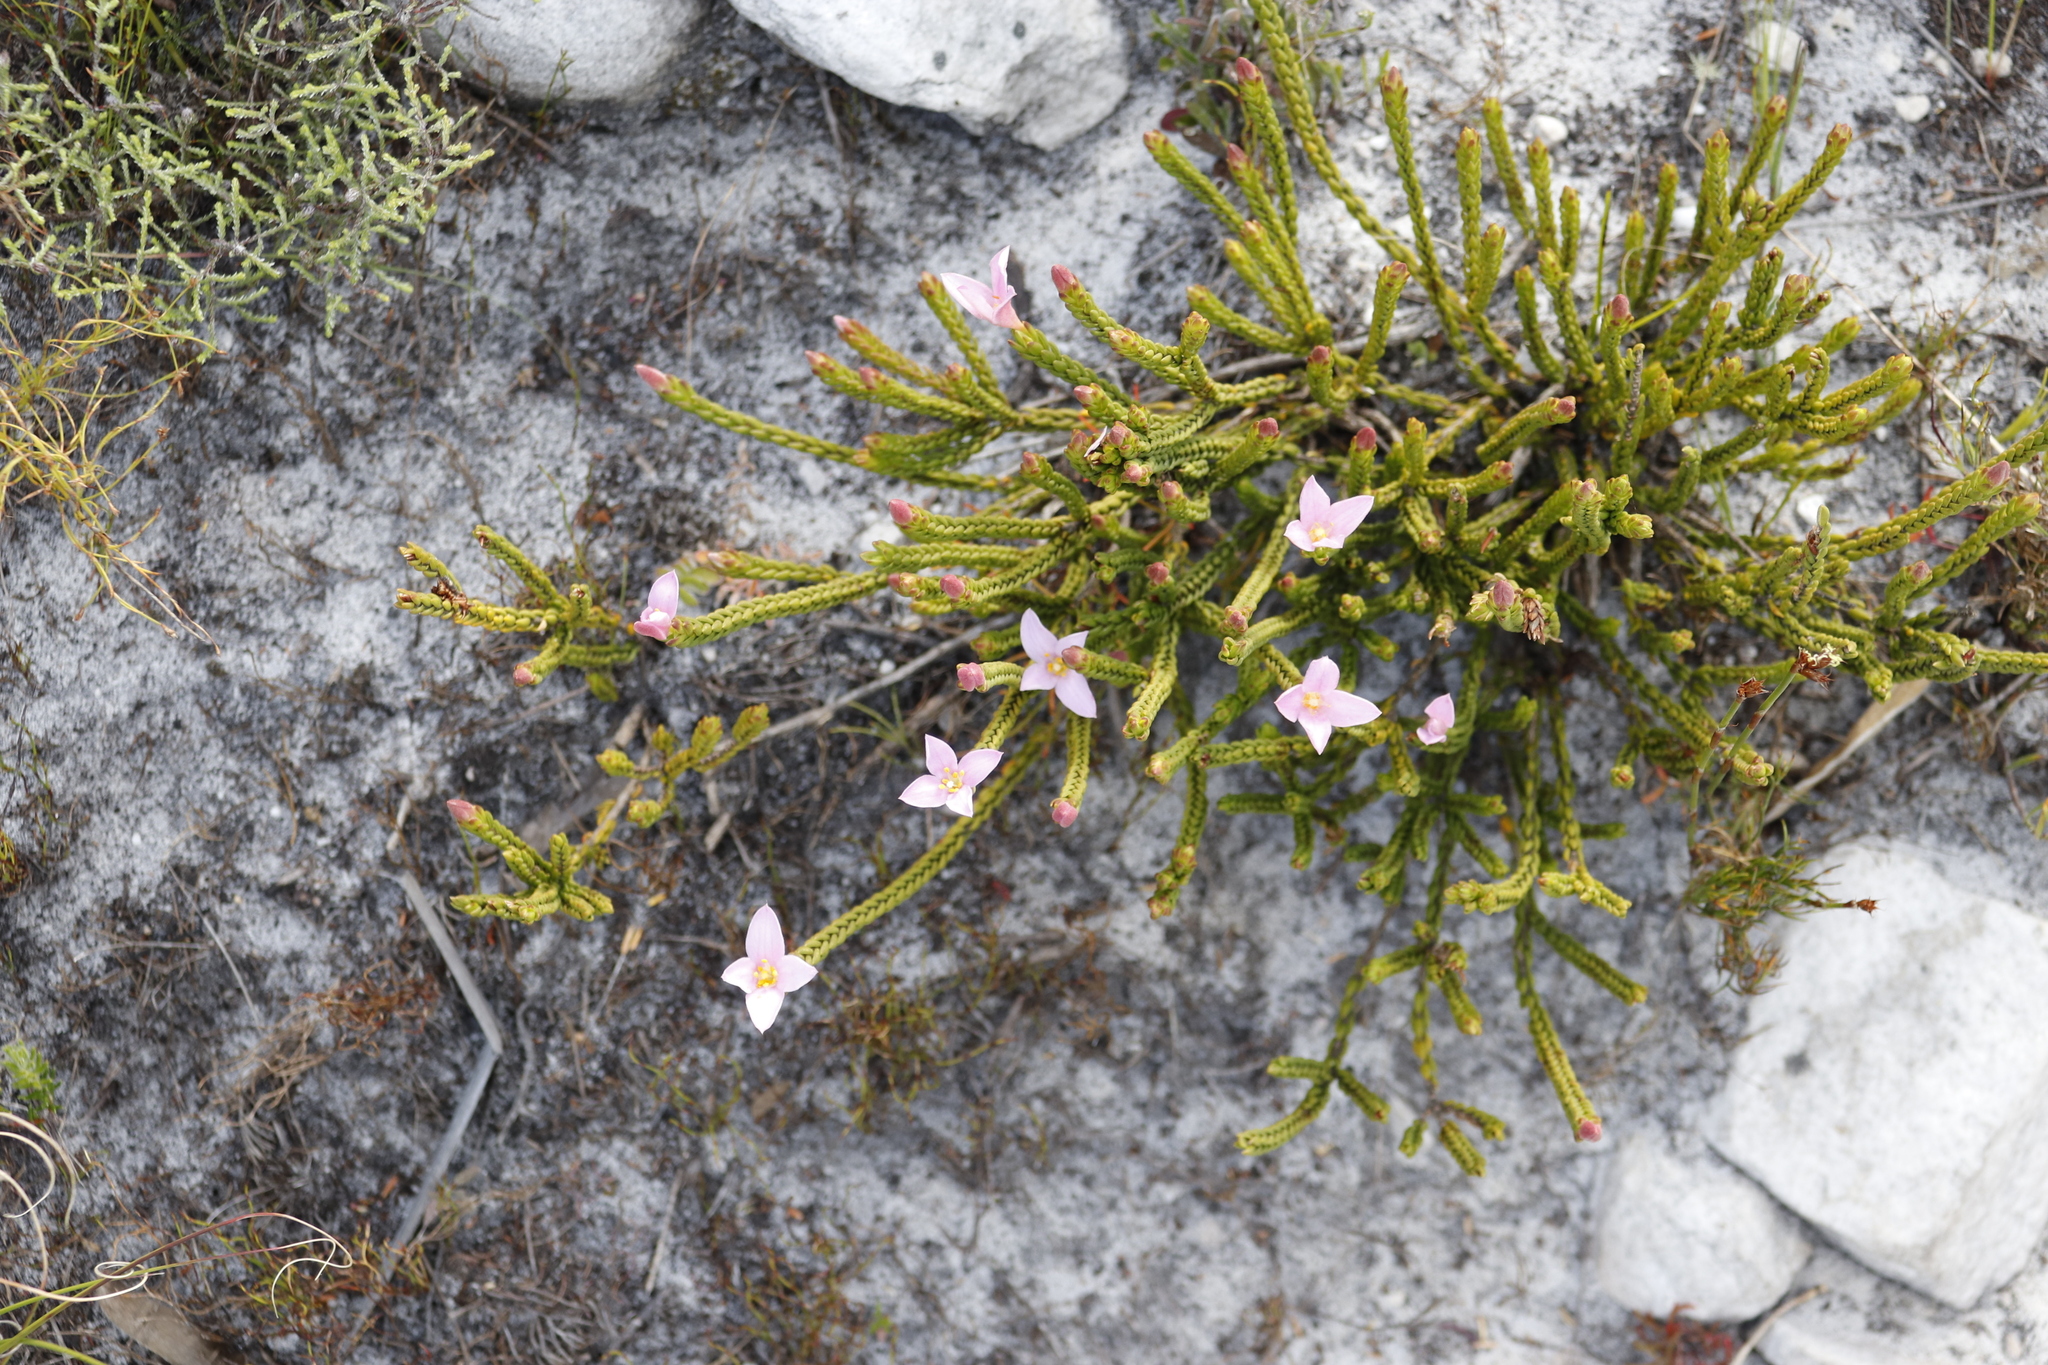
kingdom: Plantae
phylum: Tracheophyta
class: Magnoliopsida
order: Malvales
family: Thymelaeaceae
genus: Lachnaea
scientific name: Lachnaea grandiflora
